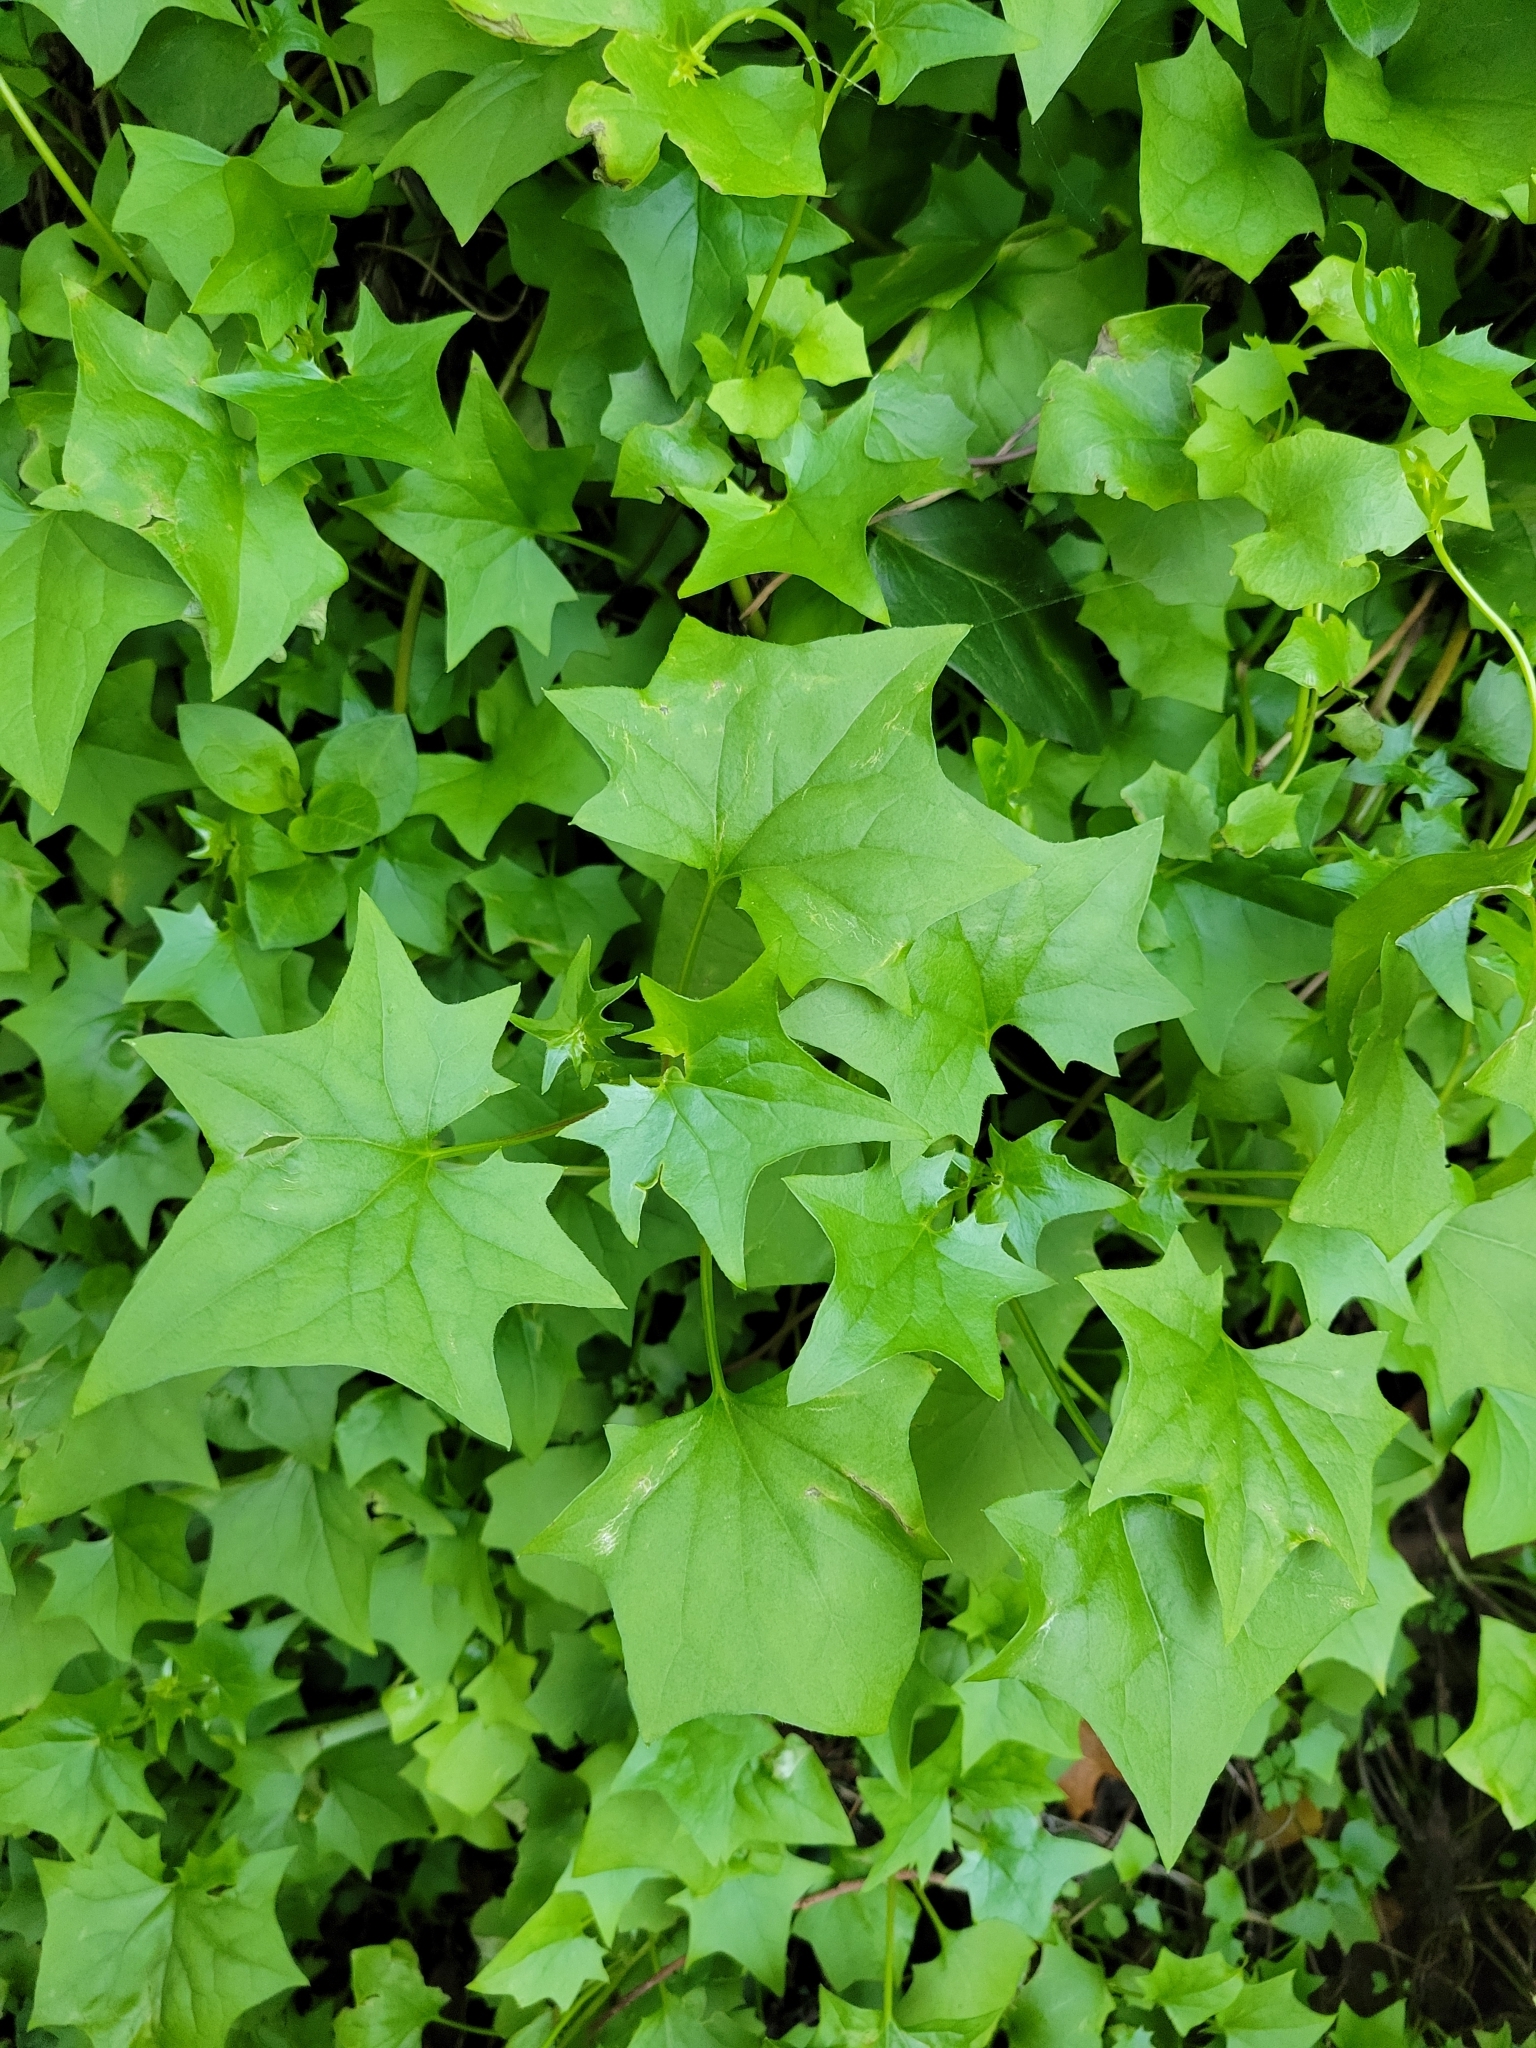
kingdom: Plantae
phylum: Tracheophyta
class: Magnoliopsida
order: Asterales
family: Asteraceae
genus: Delairea
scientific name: Delairea odorata
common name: Cape-ivy
